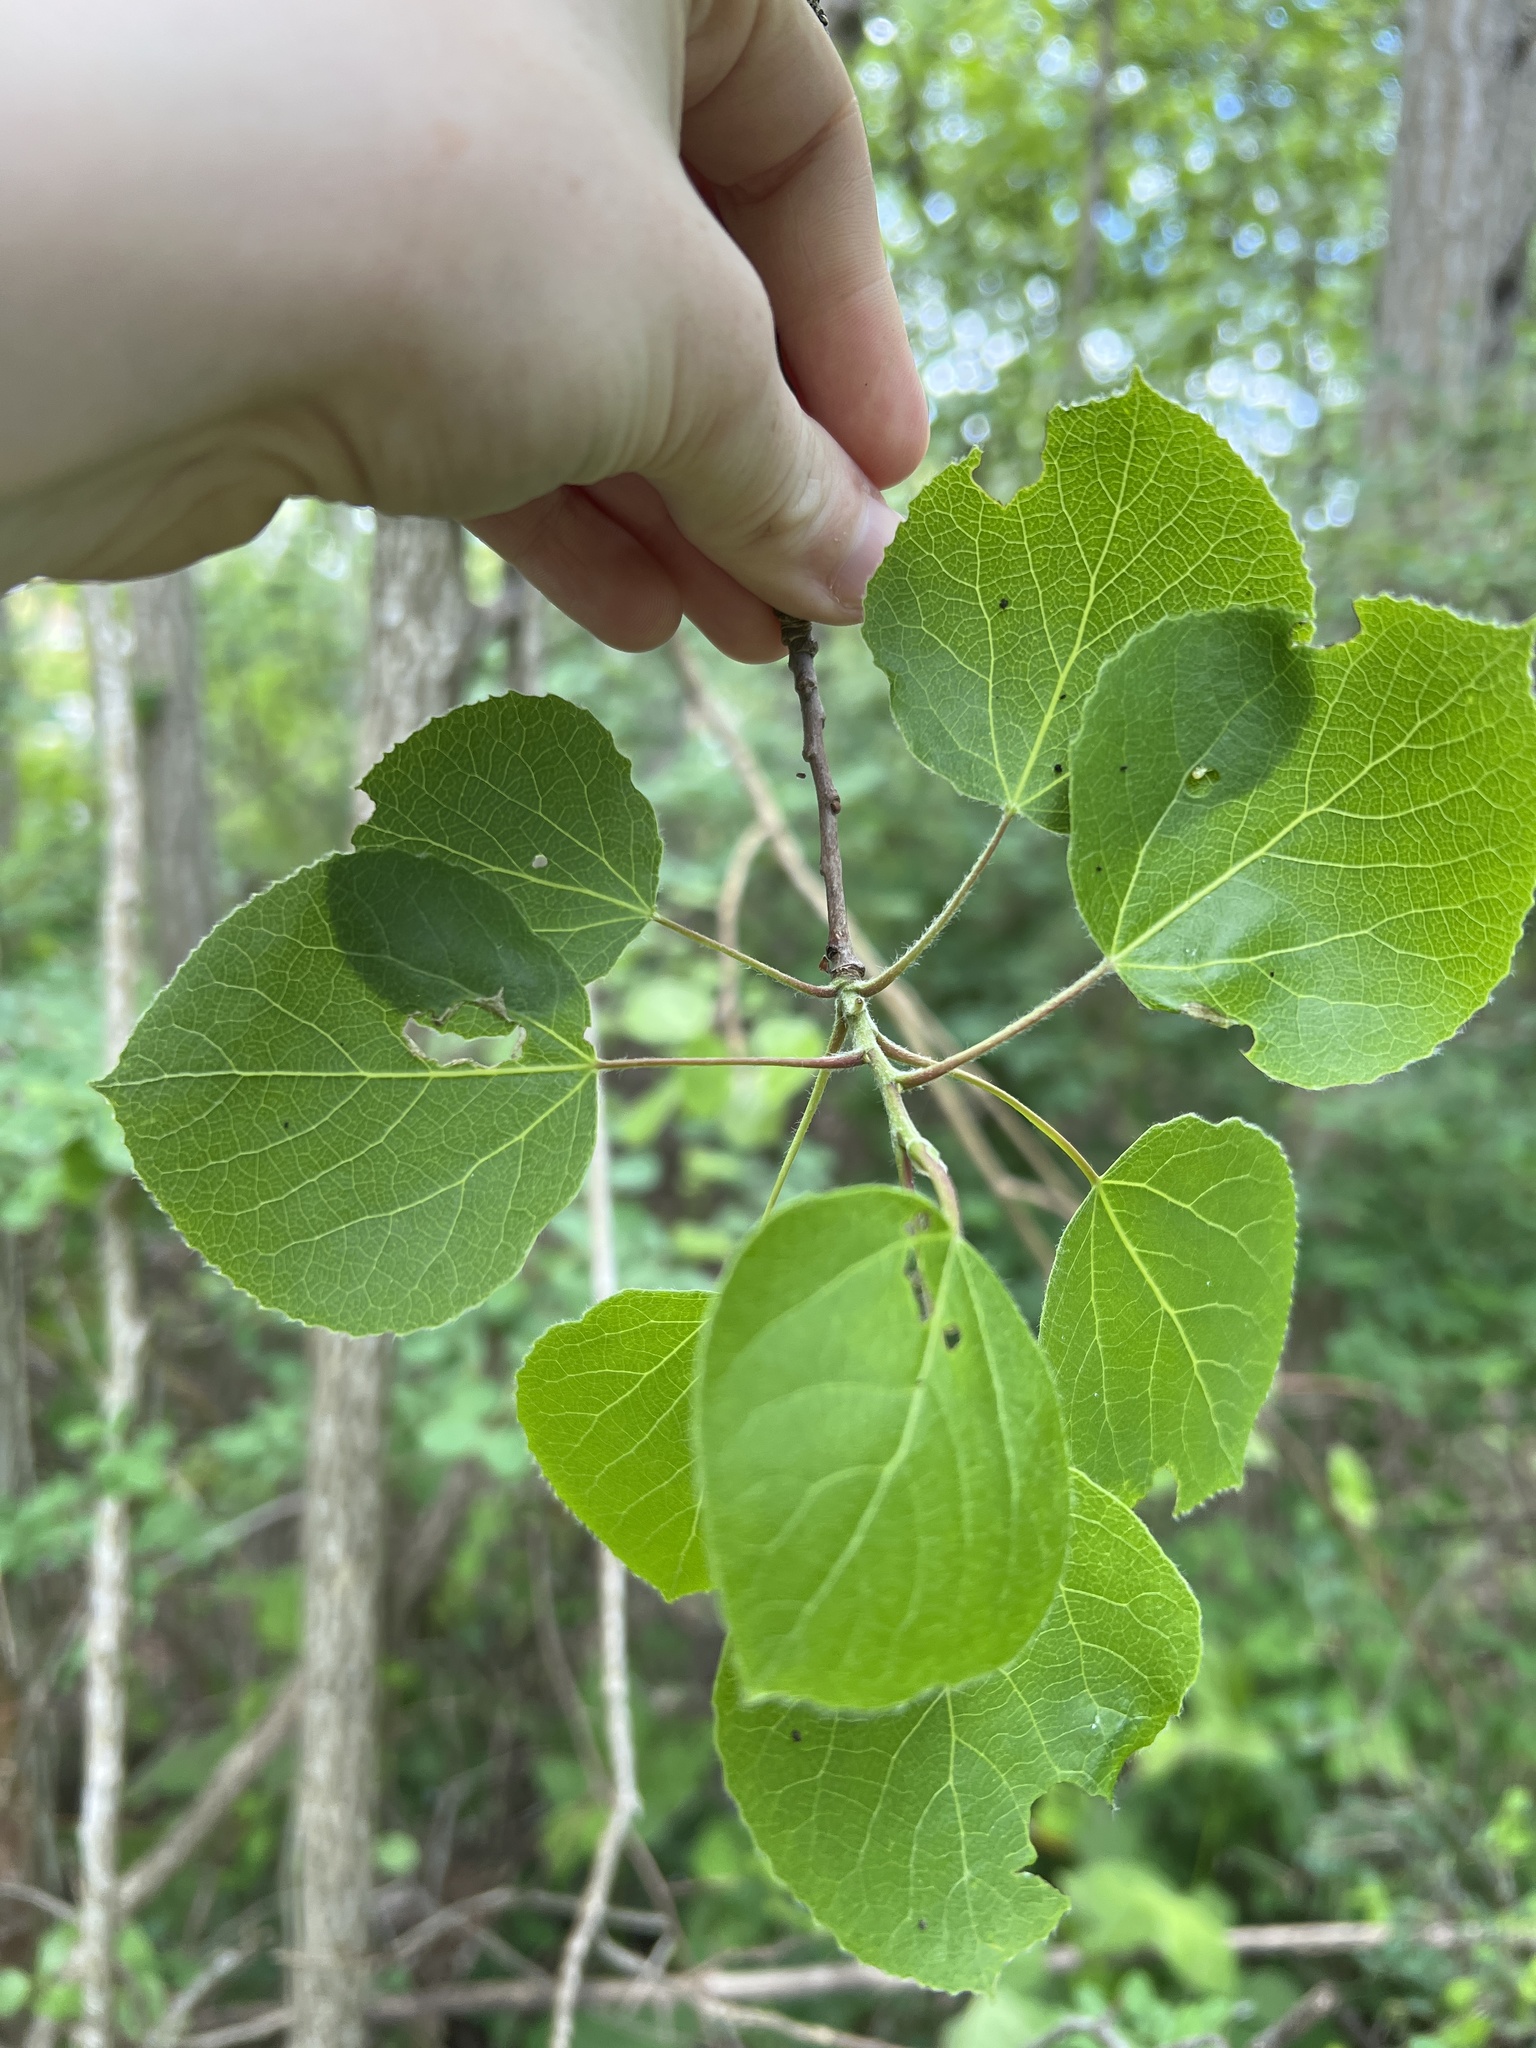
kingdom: Plantae
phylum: Tracheophyta
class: Magnoliopsida
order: Malpighiales
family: Salicaceae
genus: Populus
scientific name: Populus tremuloides
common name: Quaking aspen
